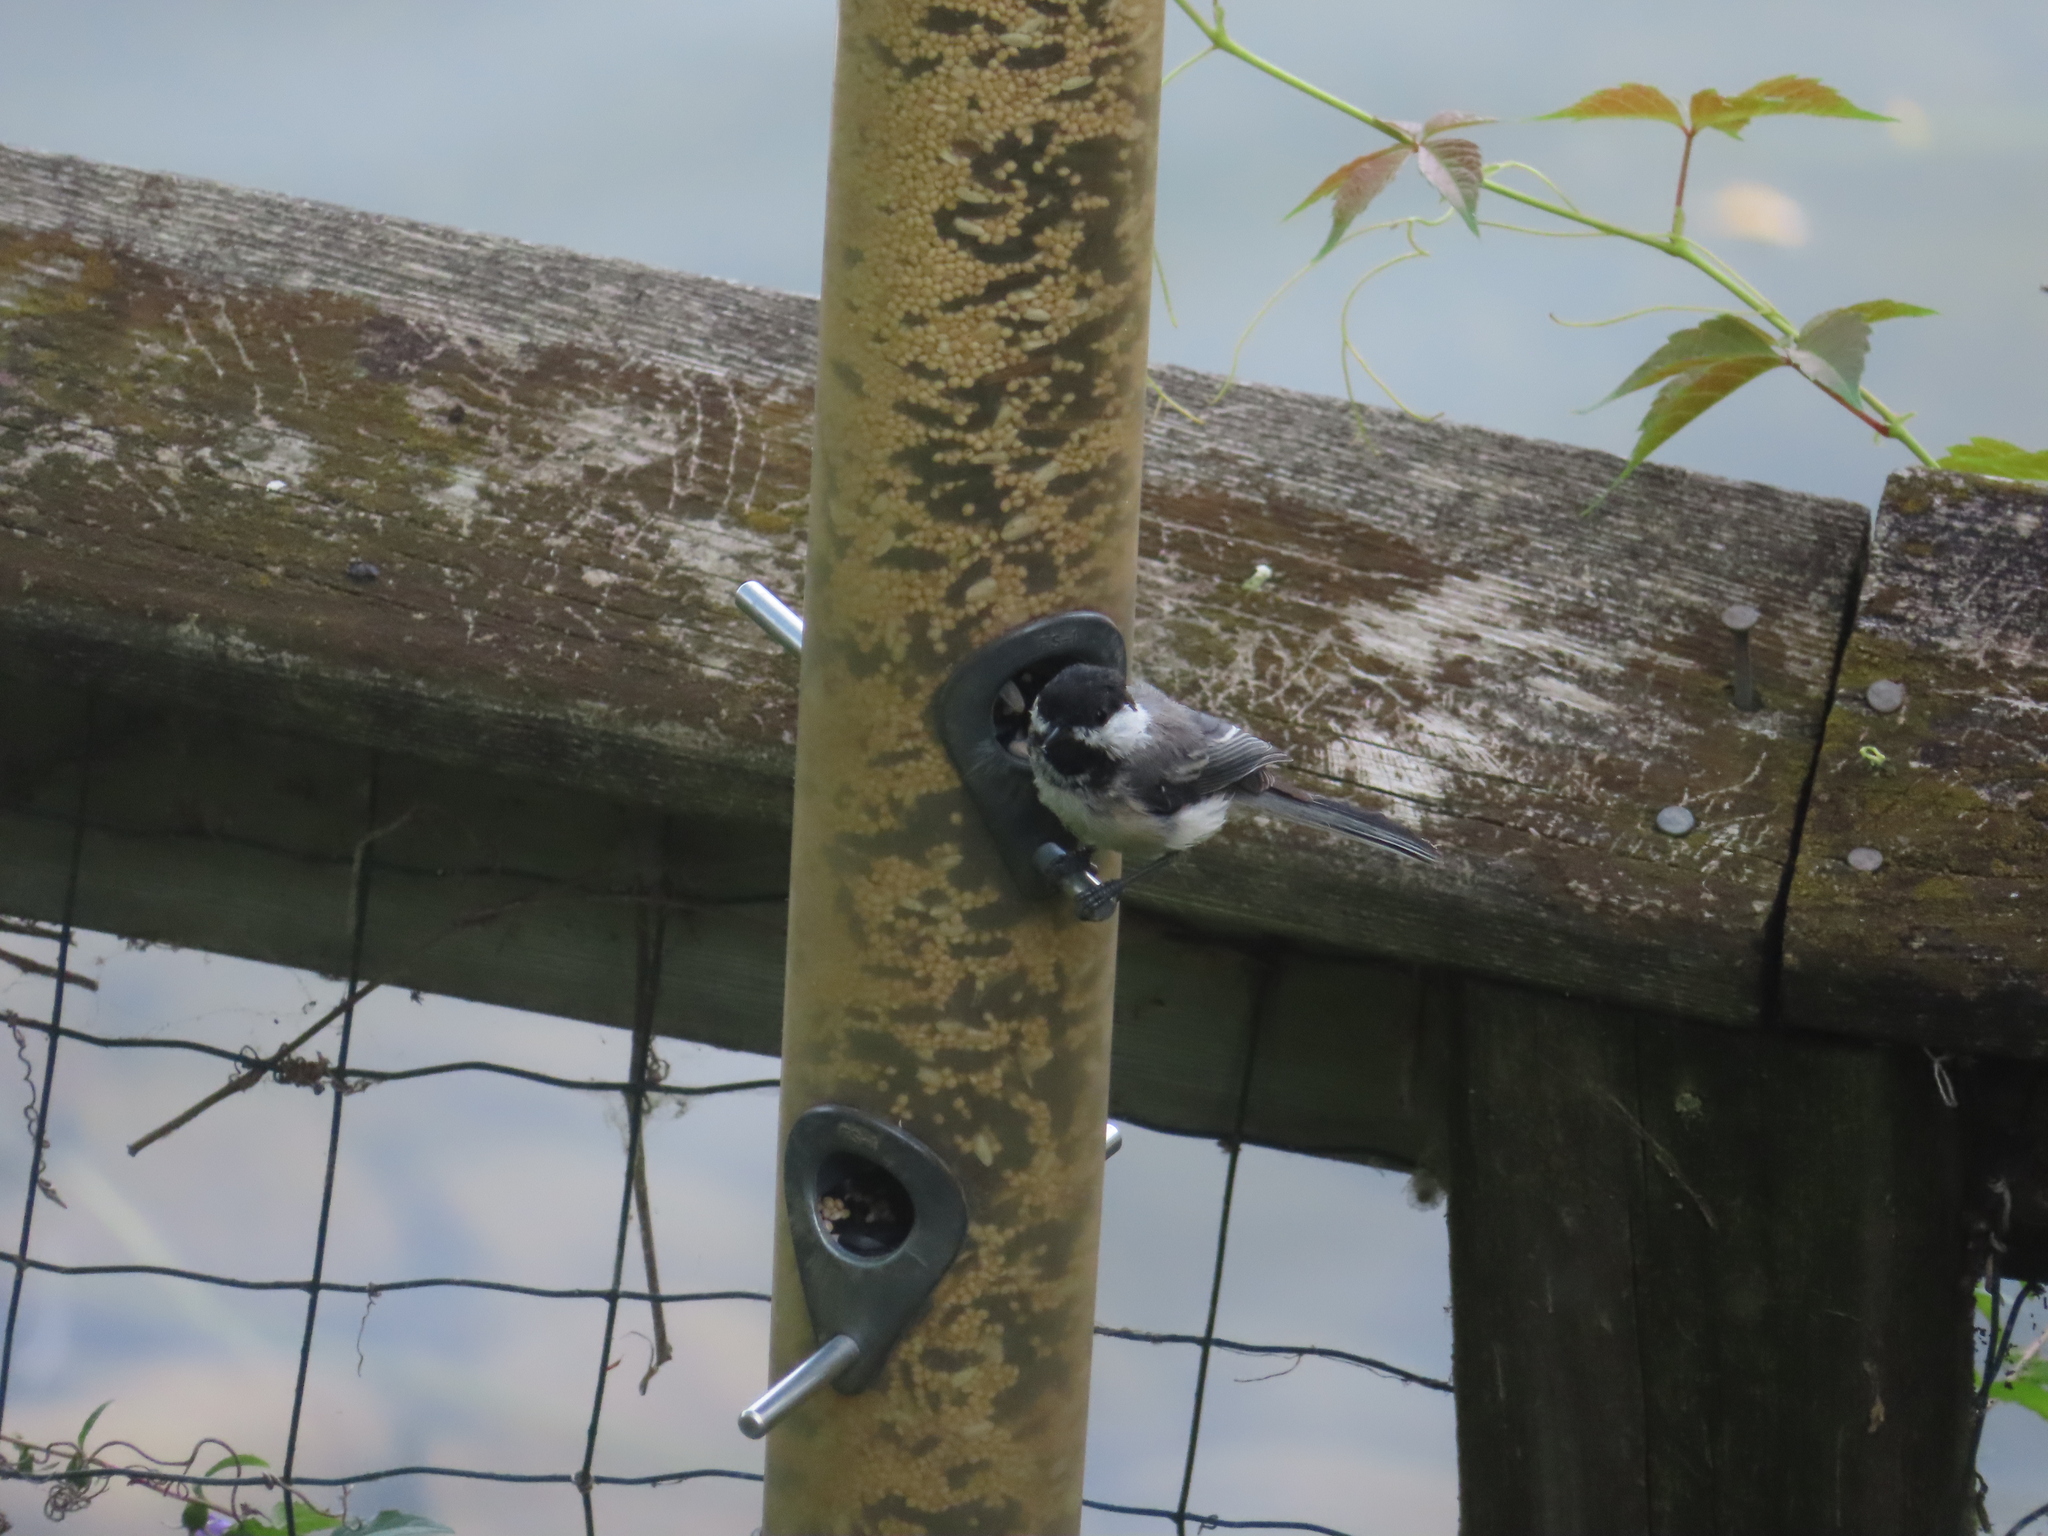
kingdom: Animalia
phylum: Chordata
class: Aves
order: Passeriformes
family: Paridae
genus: Poecile
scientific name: Poecile atricapillus
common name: Black-capped chickadee
